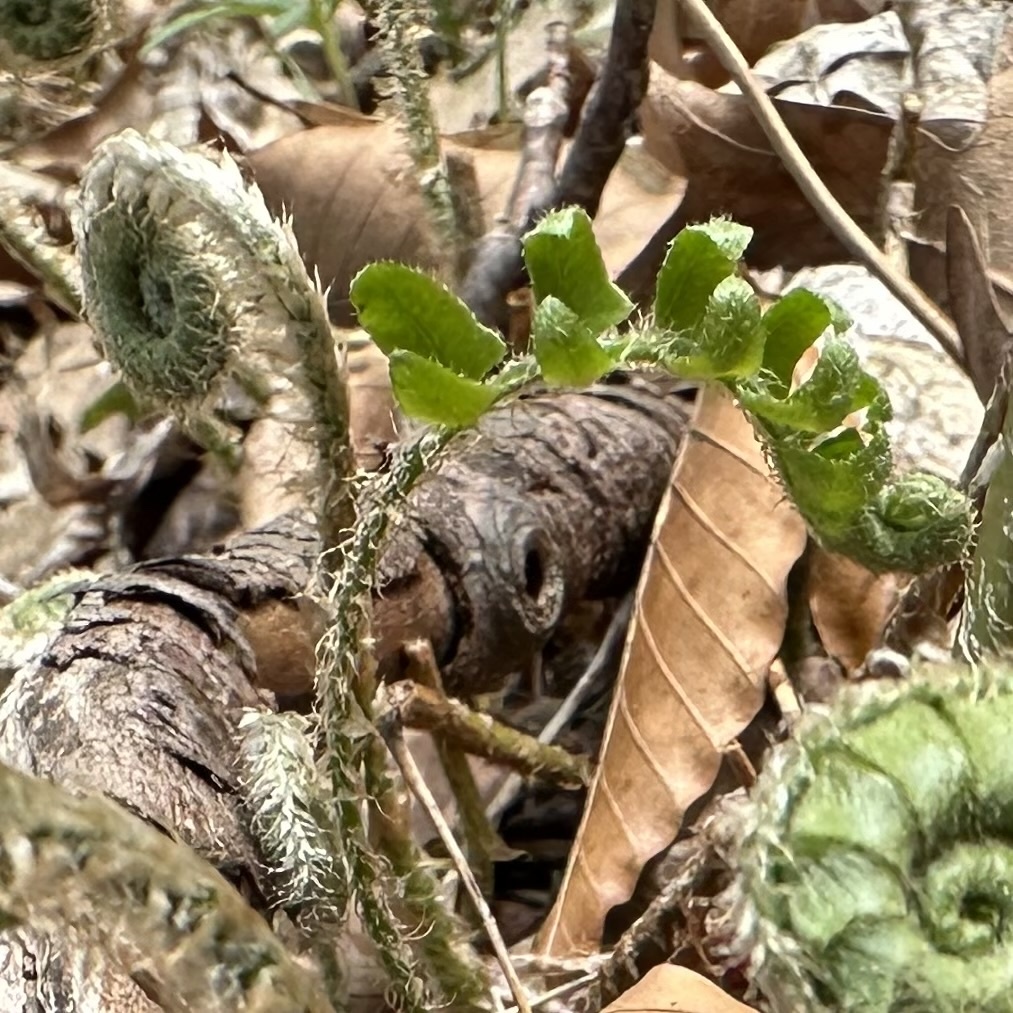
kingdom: Plantae
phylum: Tracheophyta
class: Polypodiopsida
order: Polypodiales
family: Dryopteridaceae
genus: Polystichum
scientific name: Polystichum acrostichoides
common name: Christmas fern
